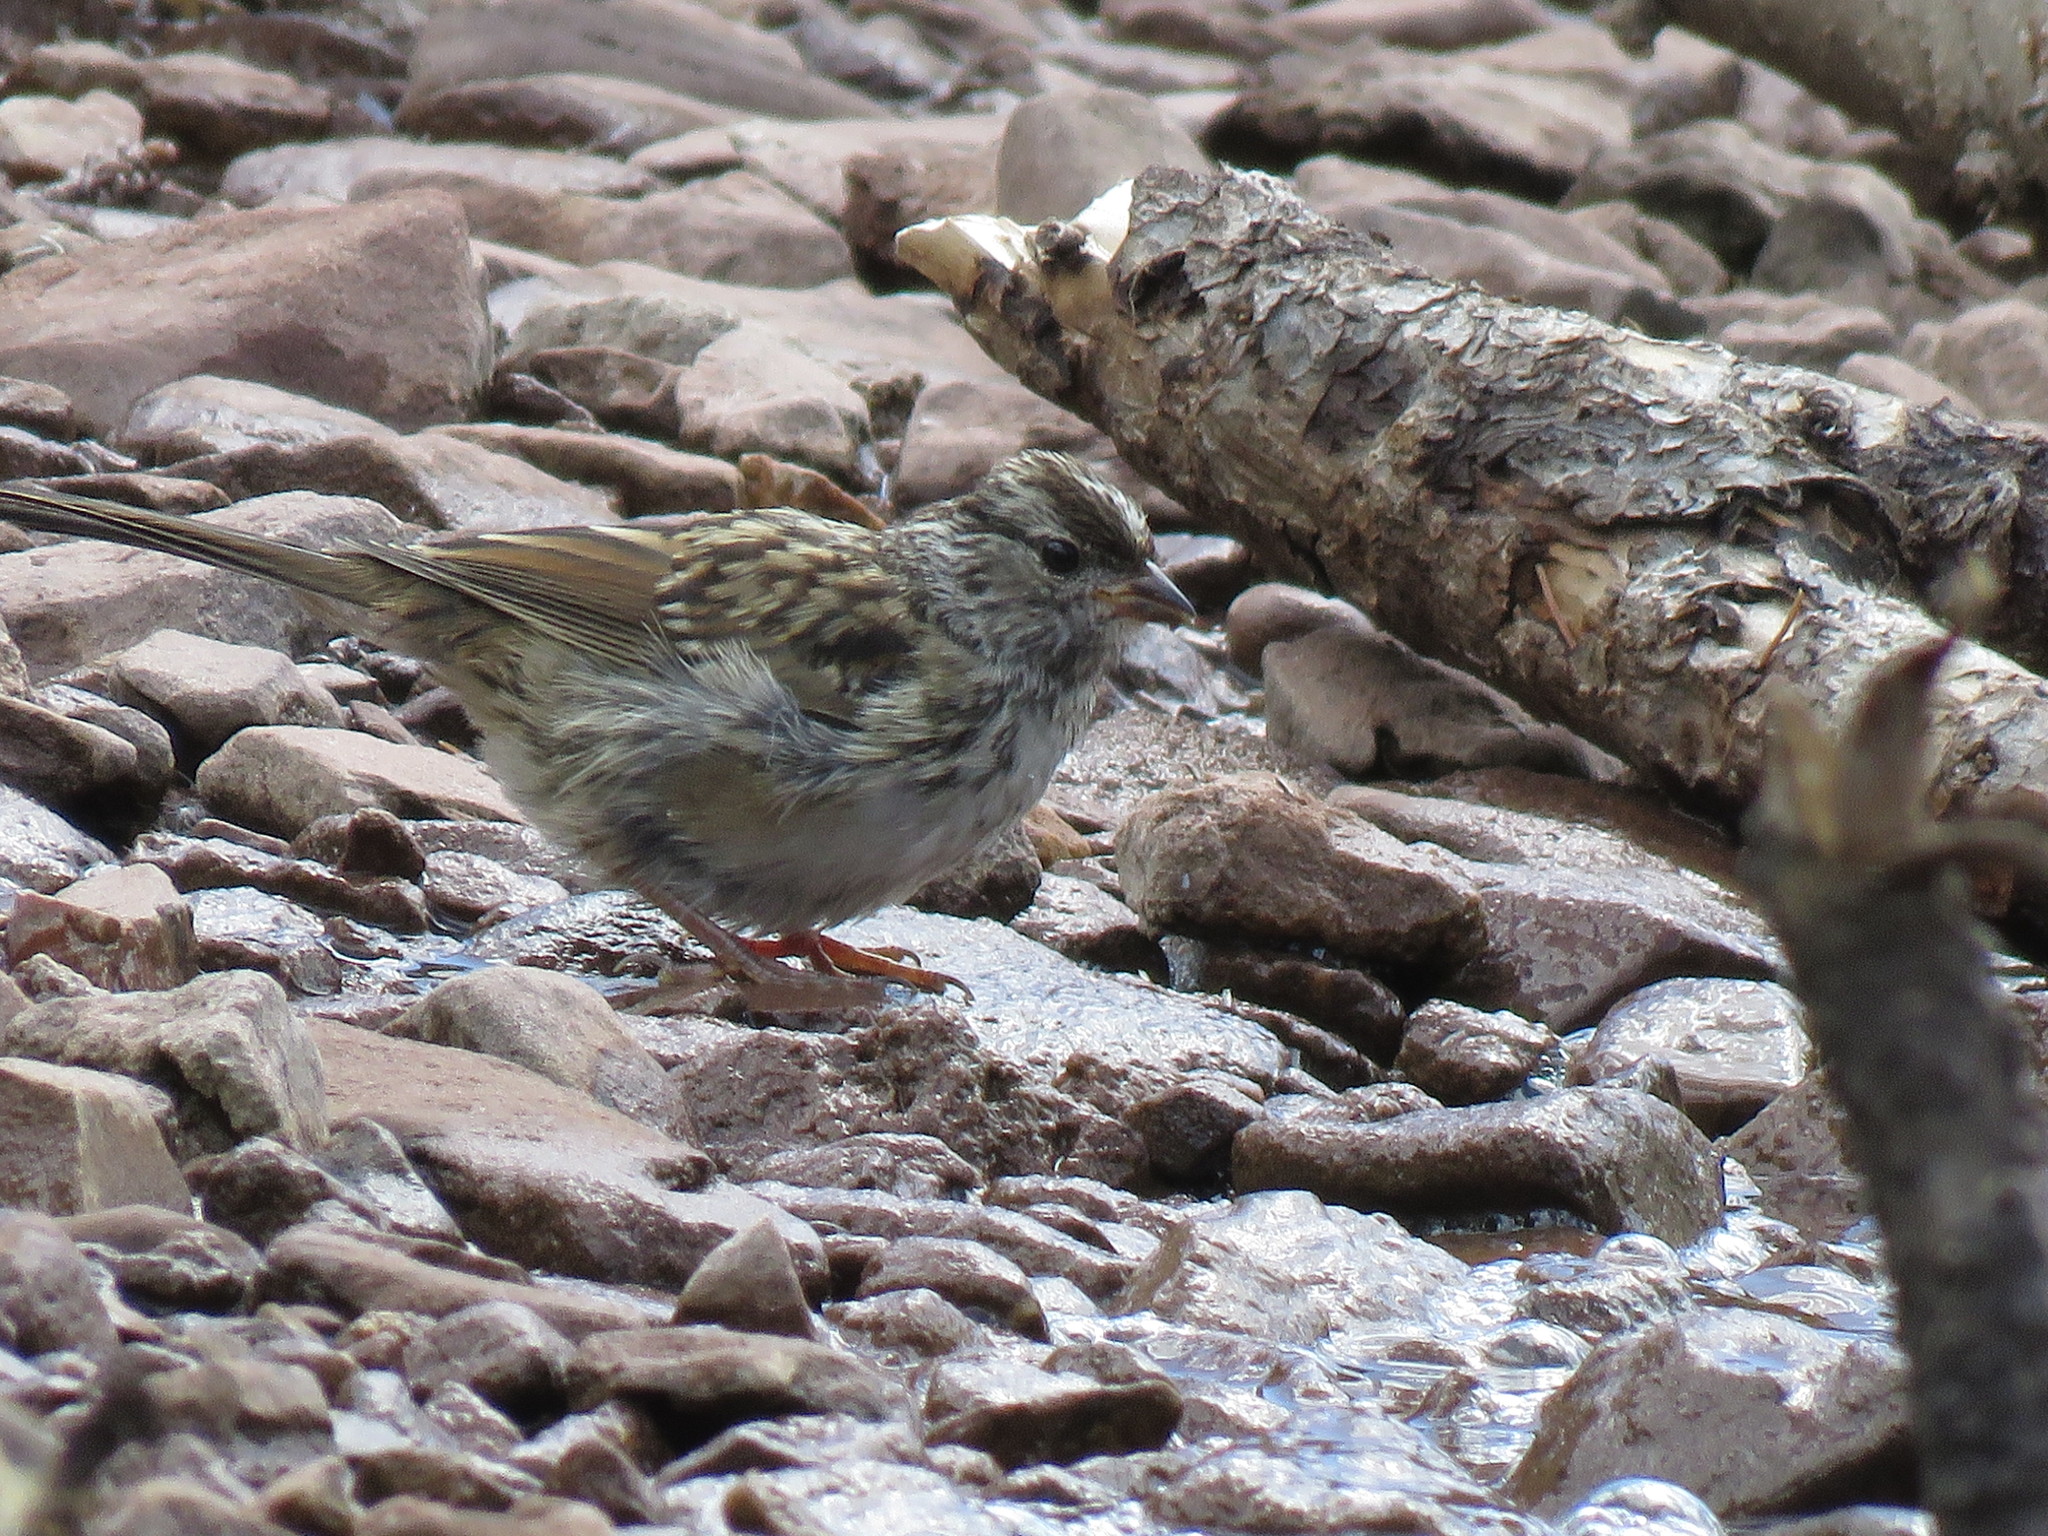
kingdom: Animalia
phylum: Chordata
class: Aves
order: Passeriformes
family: Passerellidae
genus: Zonotrichia
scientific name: Zonotrichia leucophrys
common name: White-crowned sparrow
